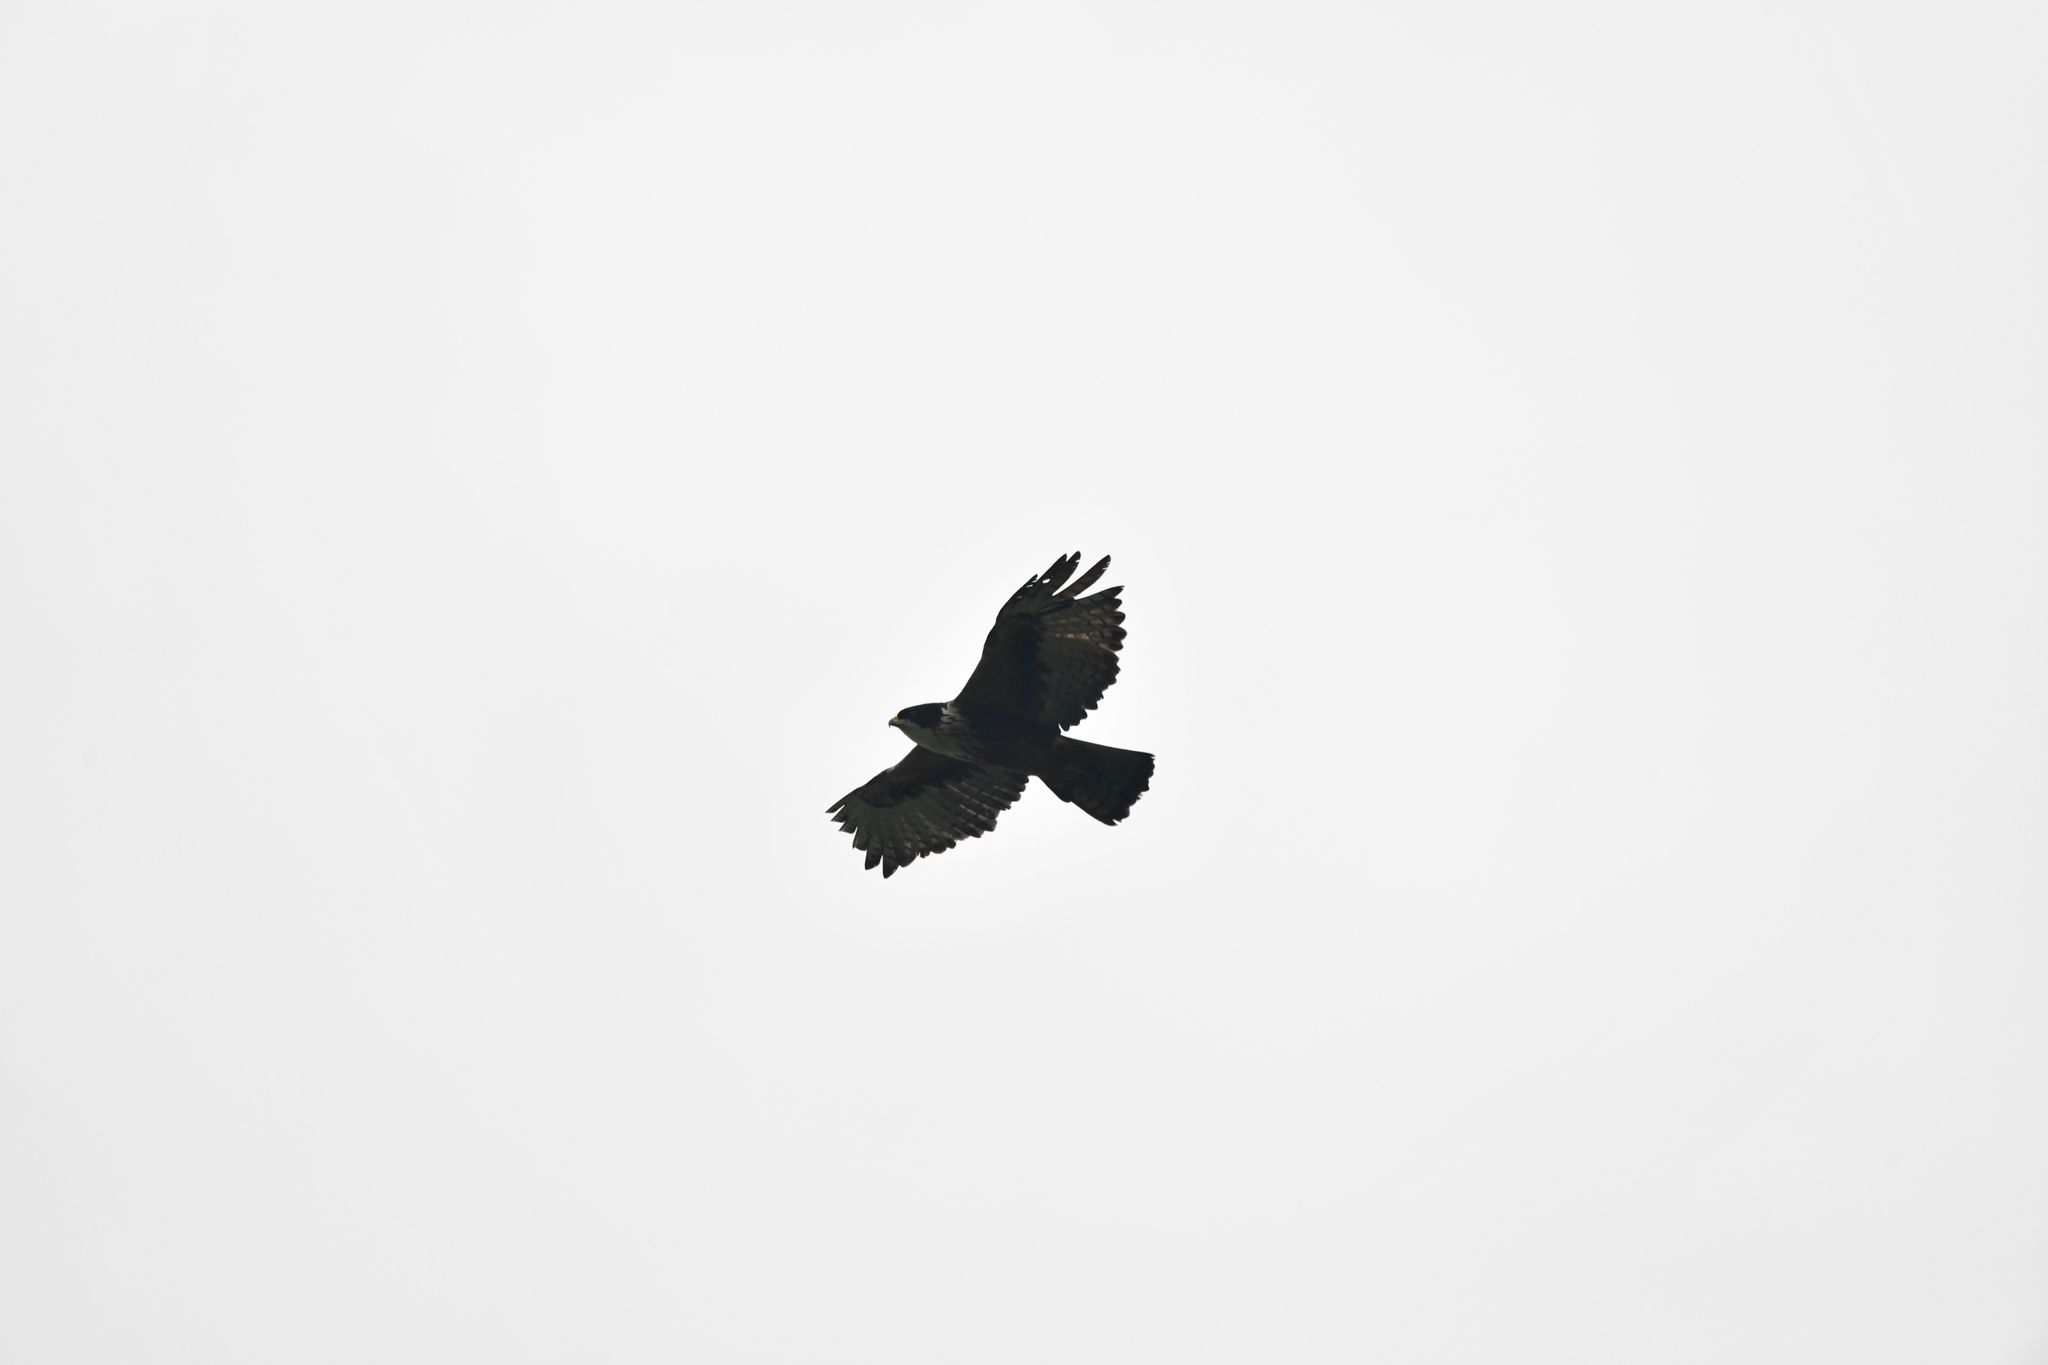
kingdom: Animalia
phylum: Chordata
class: Aves
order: Accipitriformes
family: Accipitridae
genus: Lophotriorchis
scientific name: Lophotriorchis kienerii
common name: Rufous-bellied eagle
